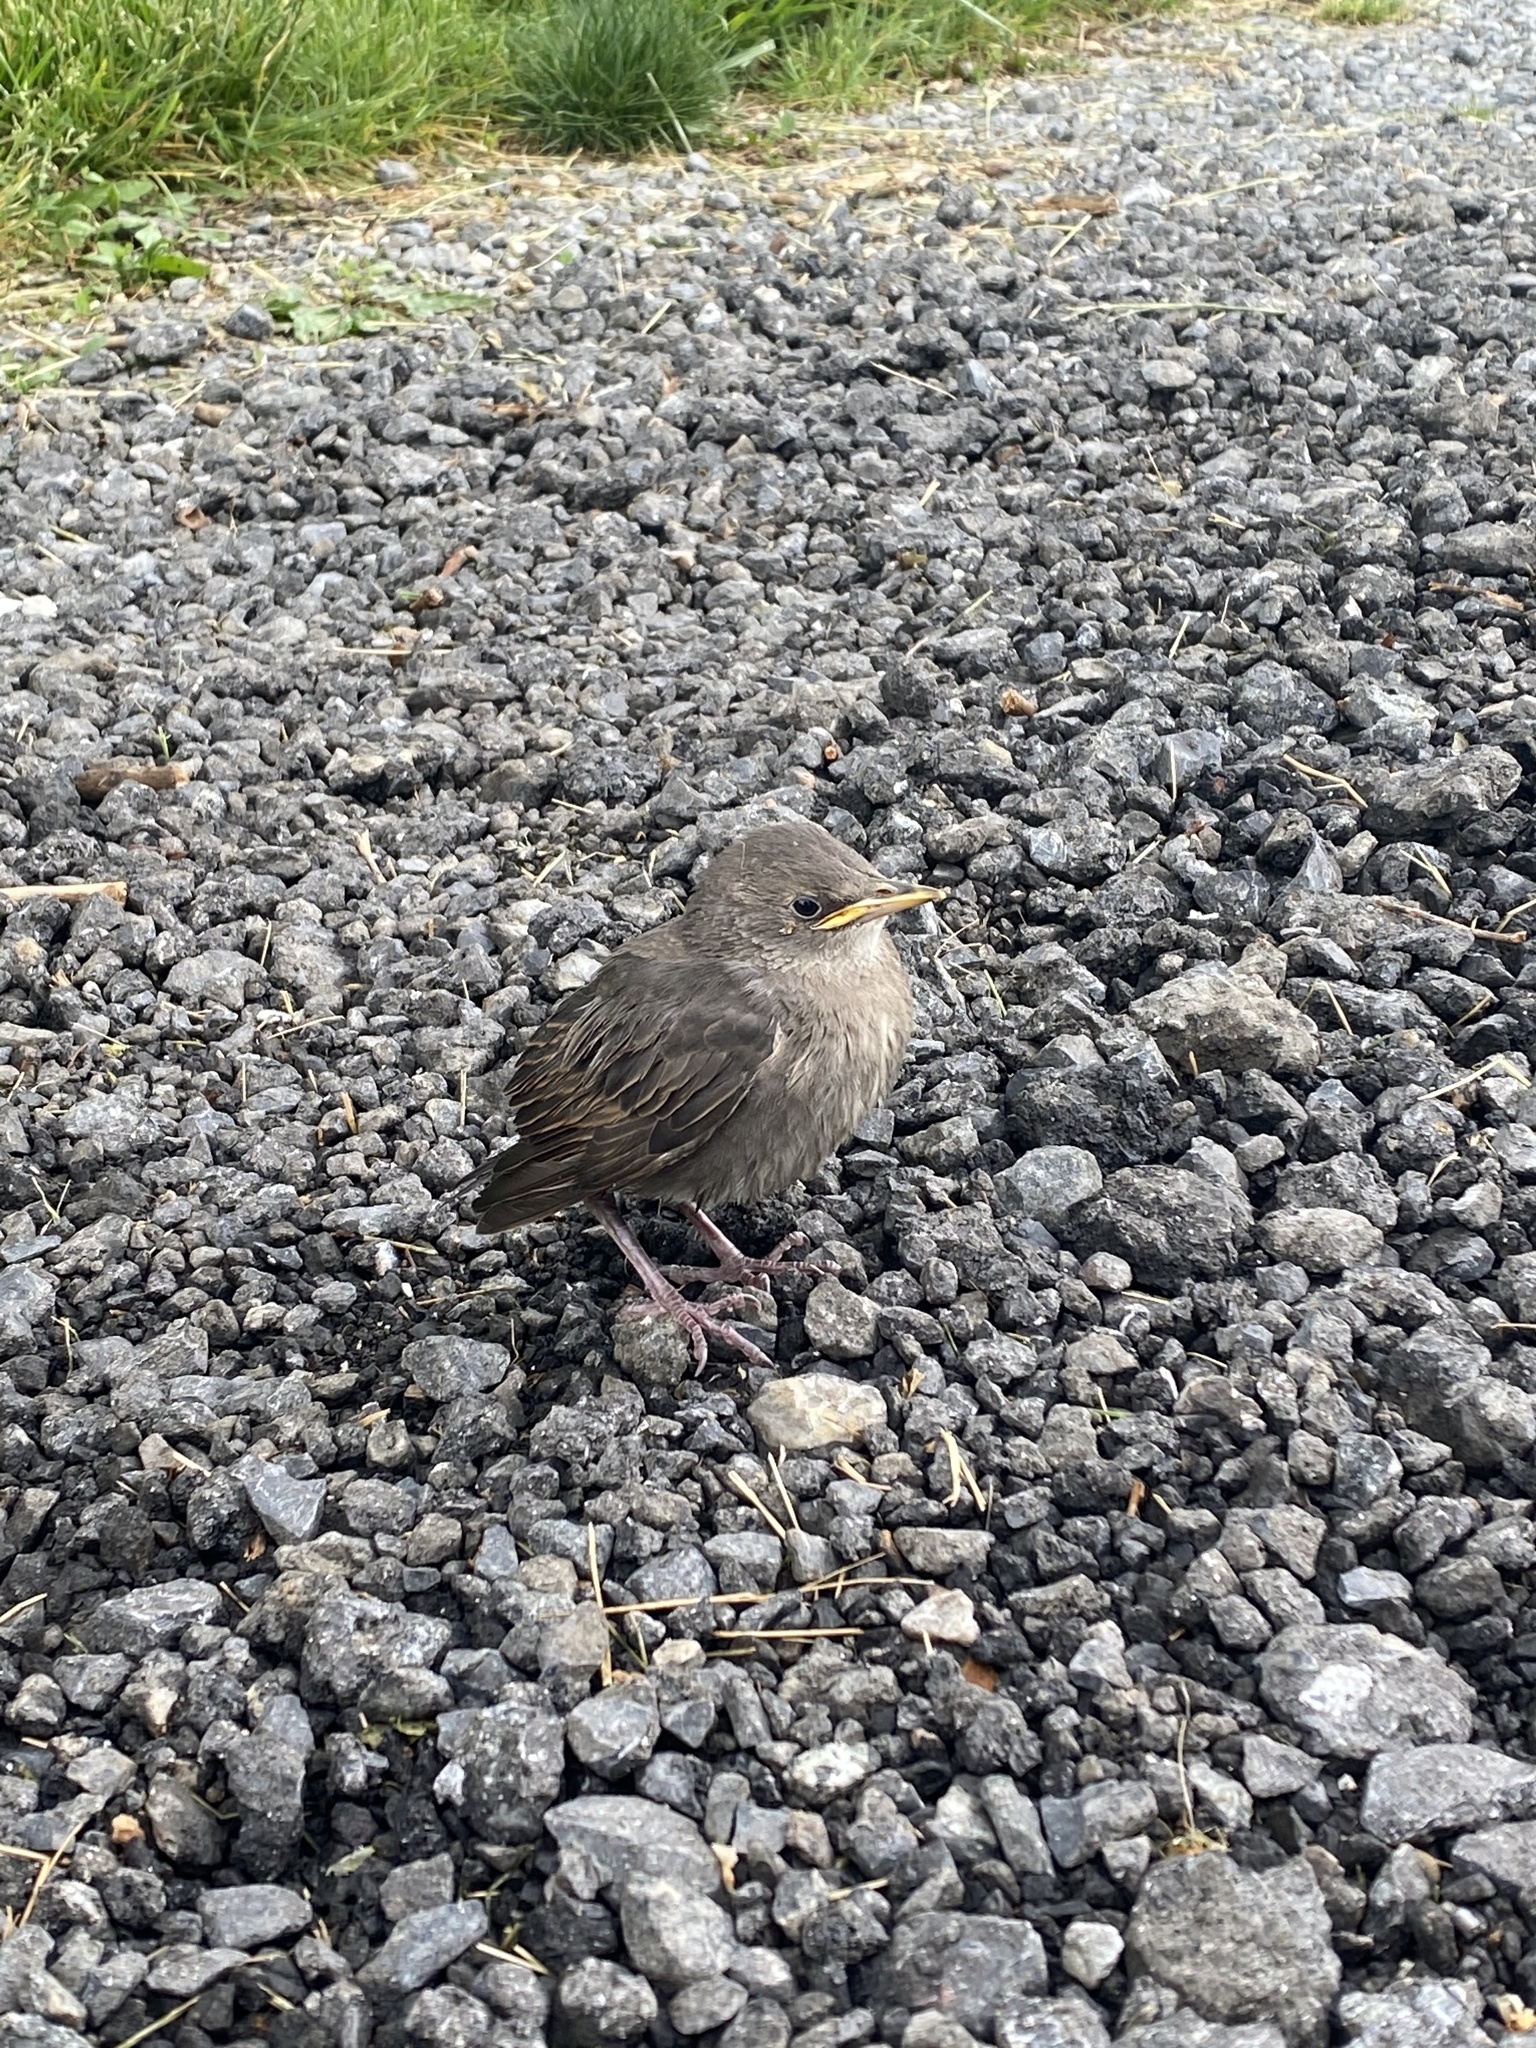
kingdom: Animalia
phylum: Chordata
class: Aves
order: Passeriformes
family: Sturnidae
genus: Sturnus
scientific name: Sturnus vulgaris
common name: Common starling
